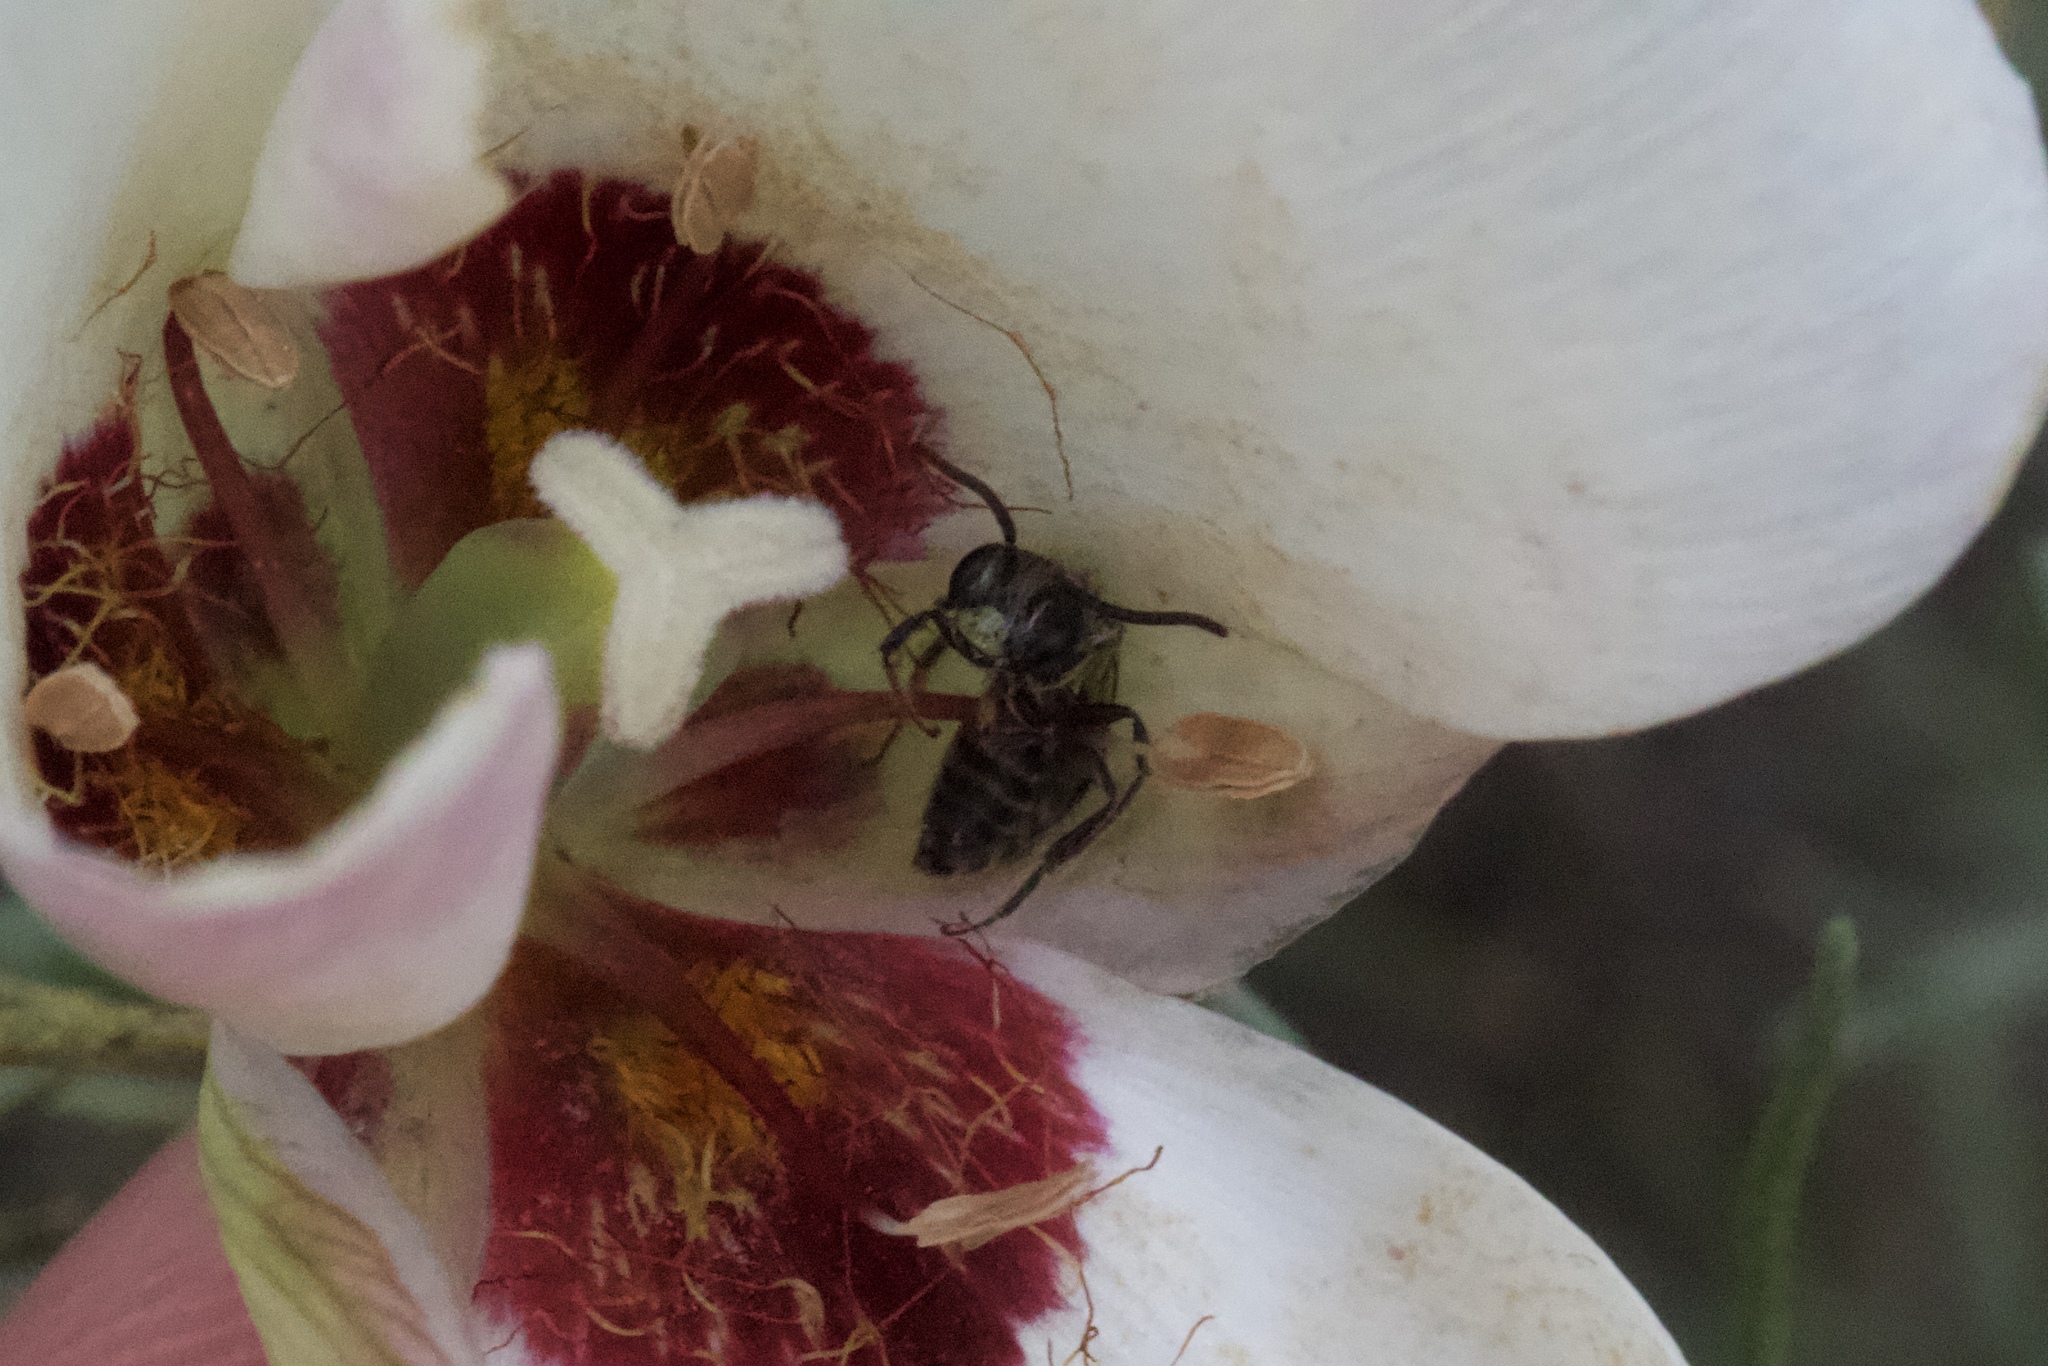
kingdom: Animalia
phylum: Arthropoda
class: Insecta
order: Hymenoptera
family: Andrenidae
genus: Andrena
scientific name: Andrena
